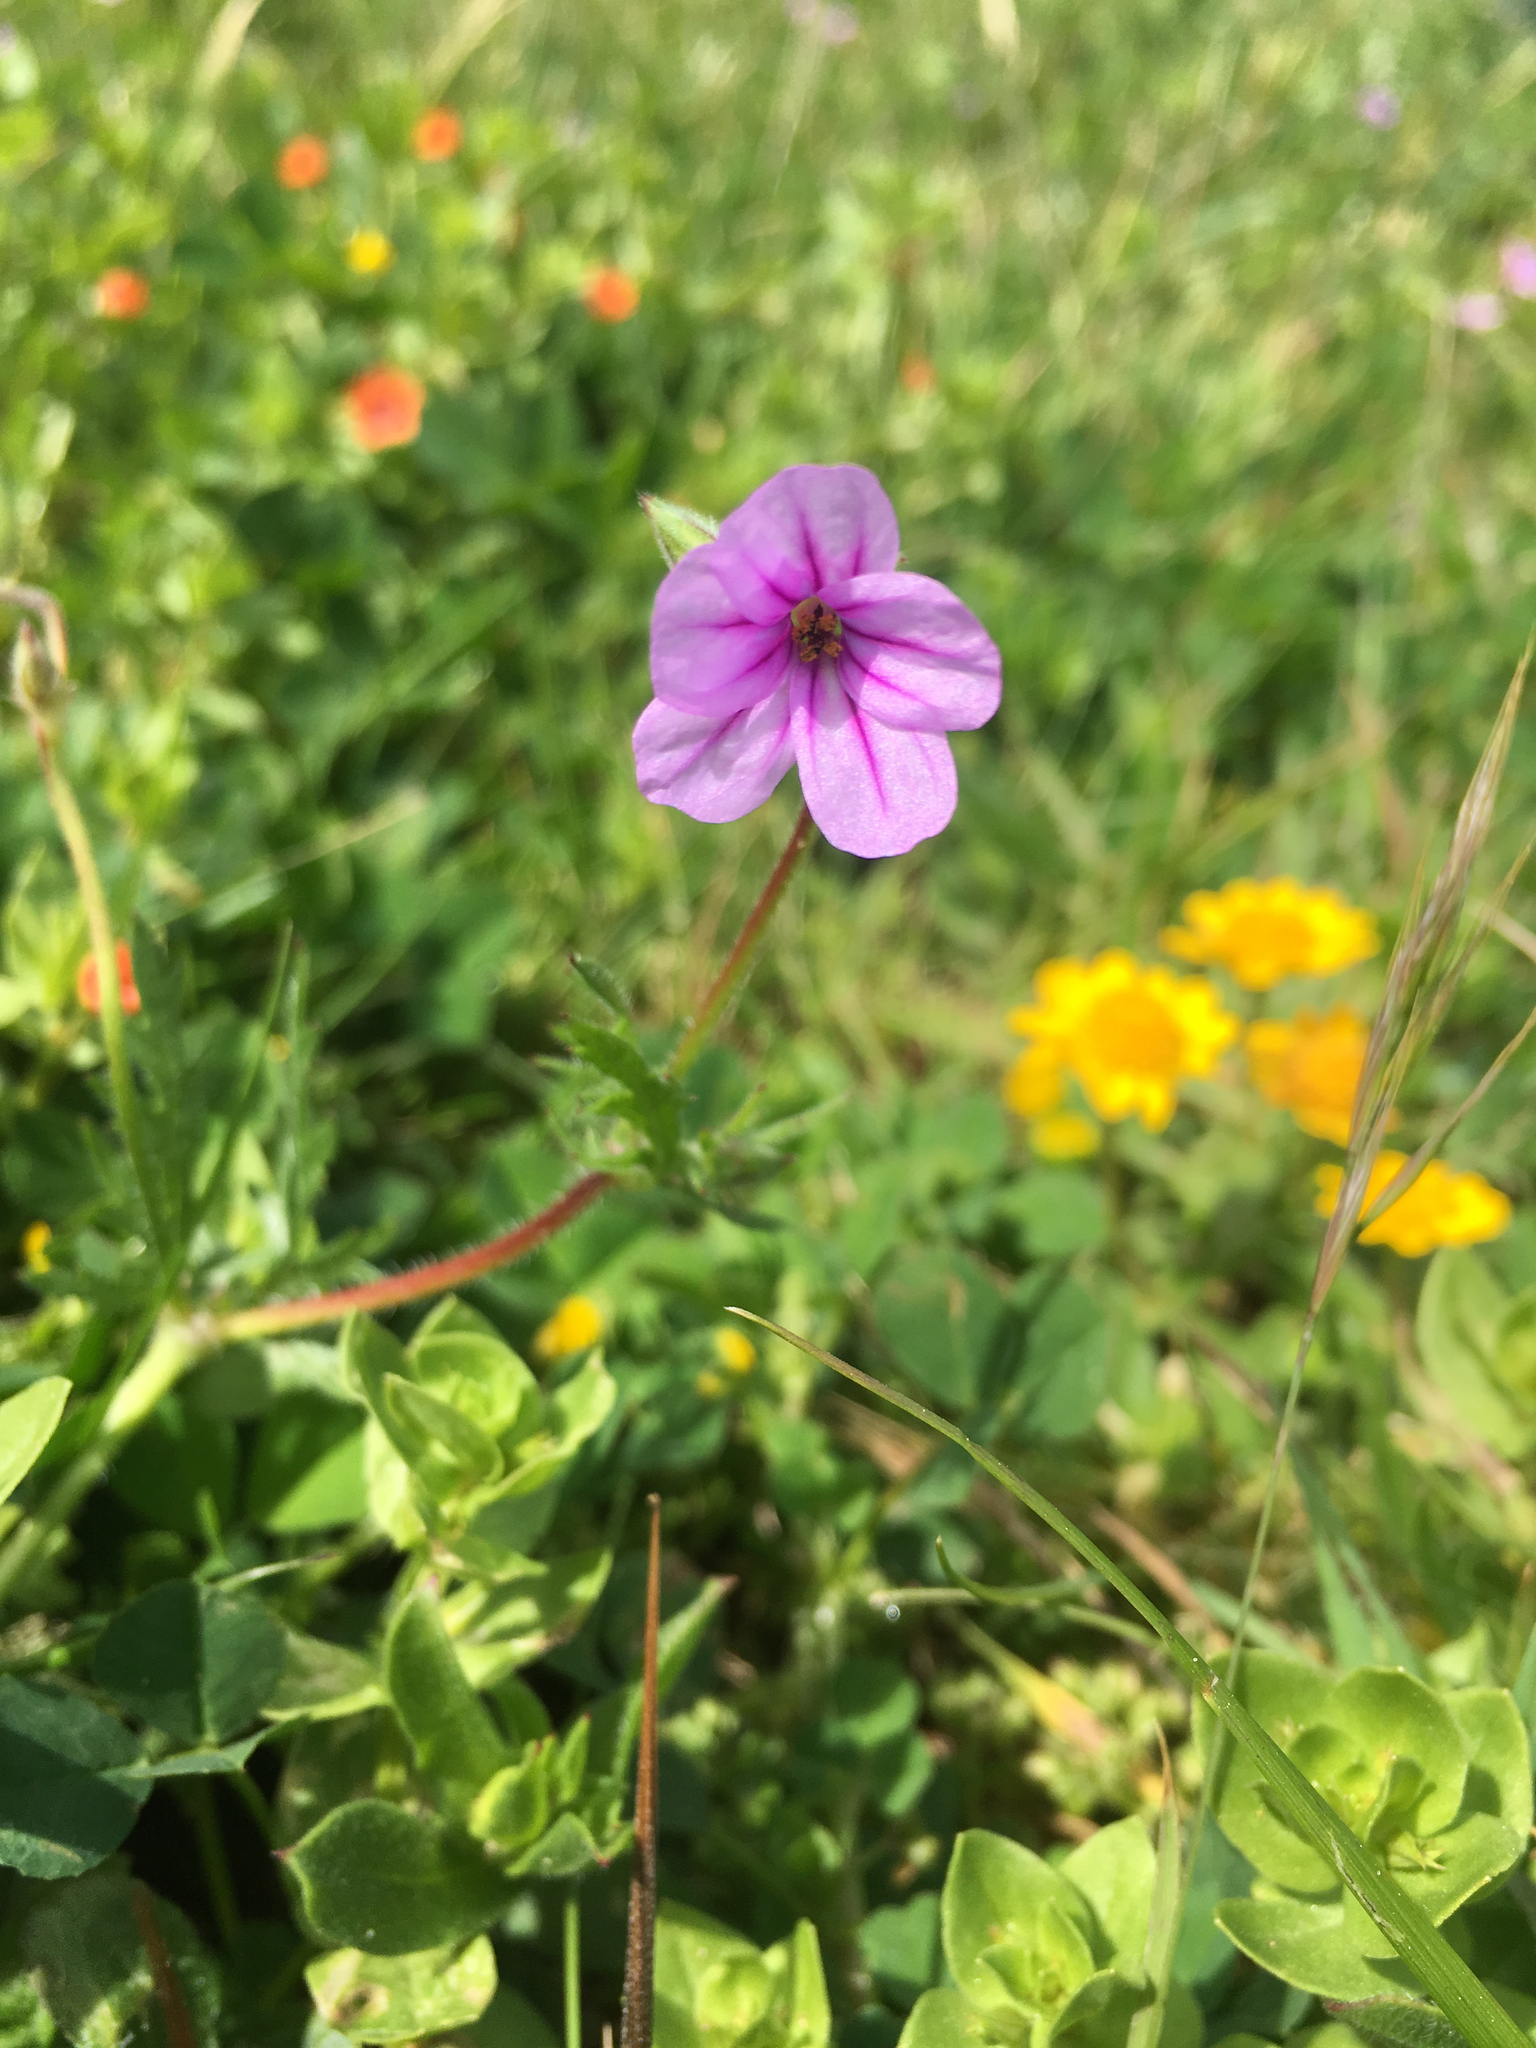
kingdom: Plantae
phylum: Tracheophyta
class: Magnoliopsida
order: Geraniales
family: Geraniaceae
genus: Erodium
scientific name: Erodium botrys
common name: Mediterranean stork's-bill
